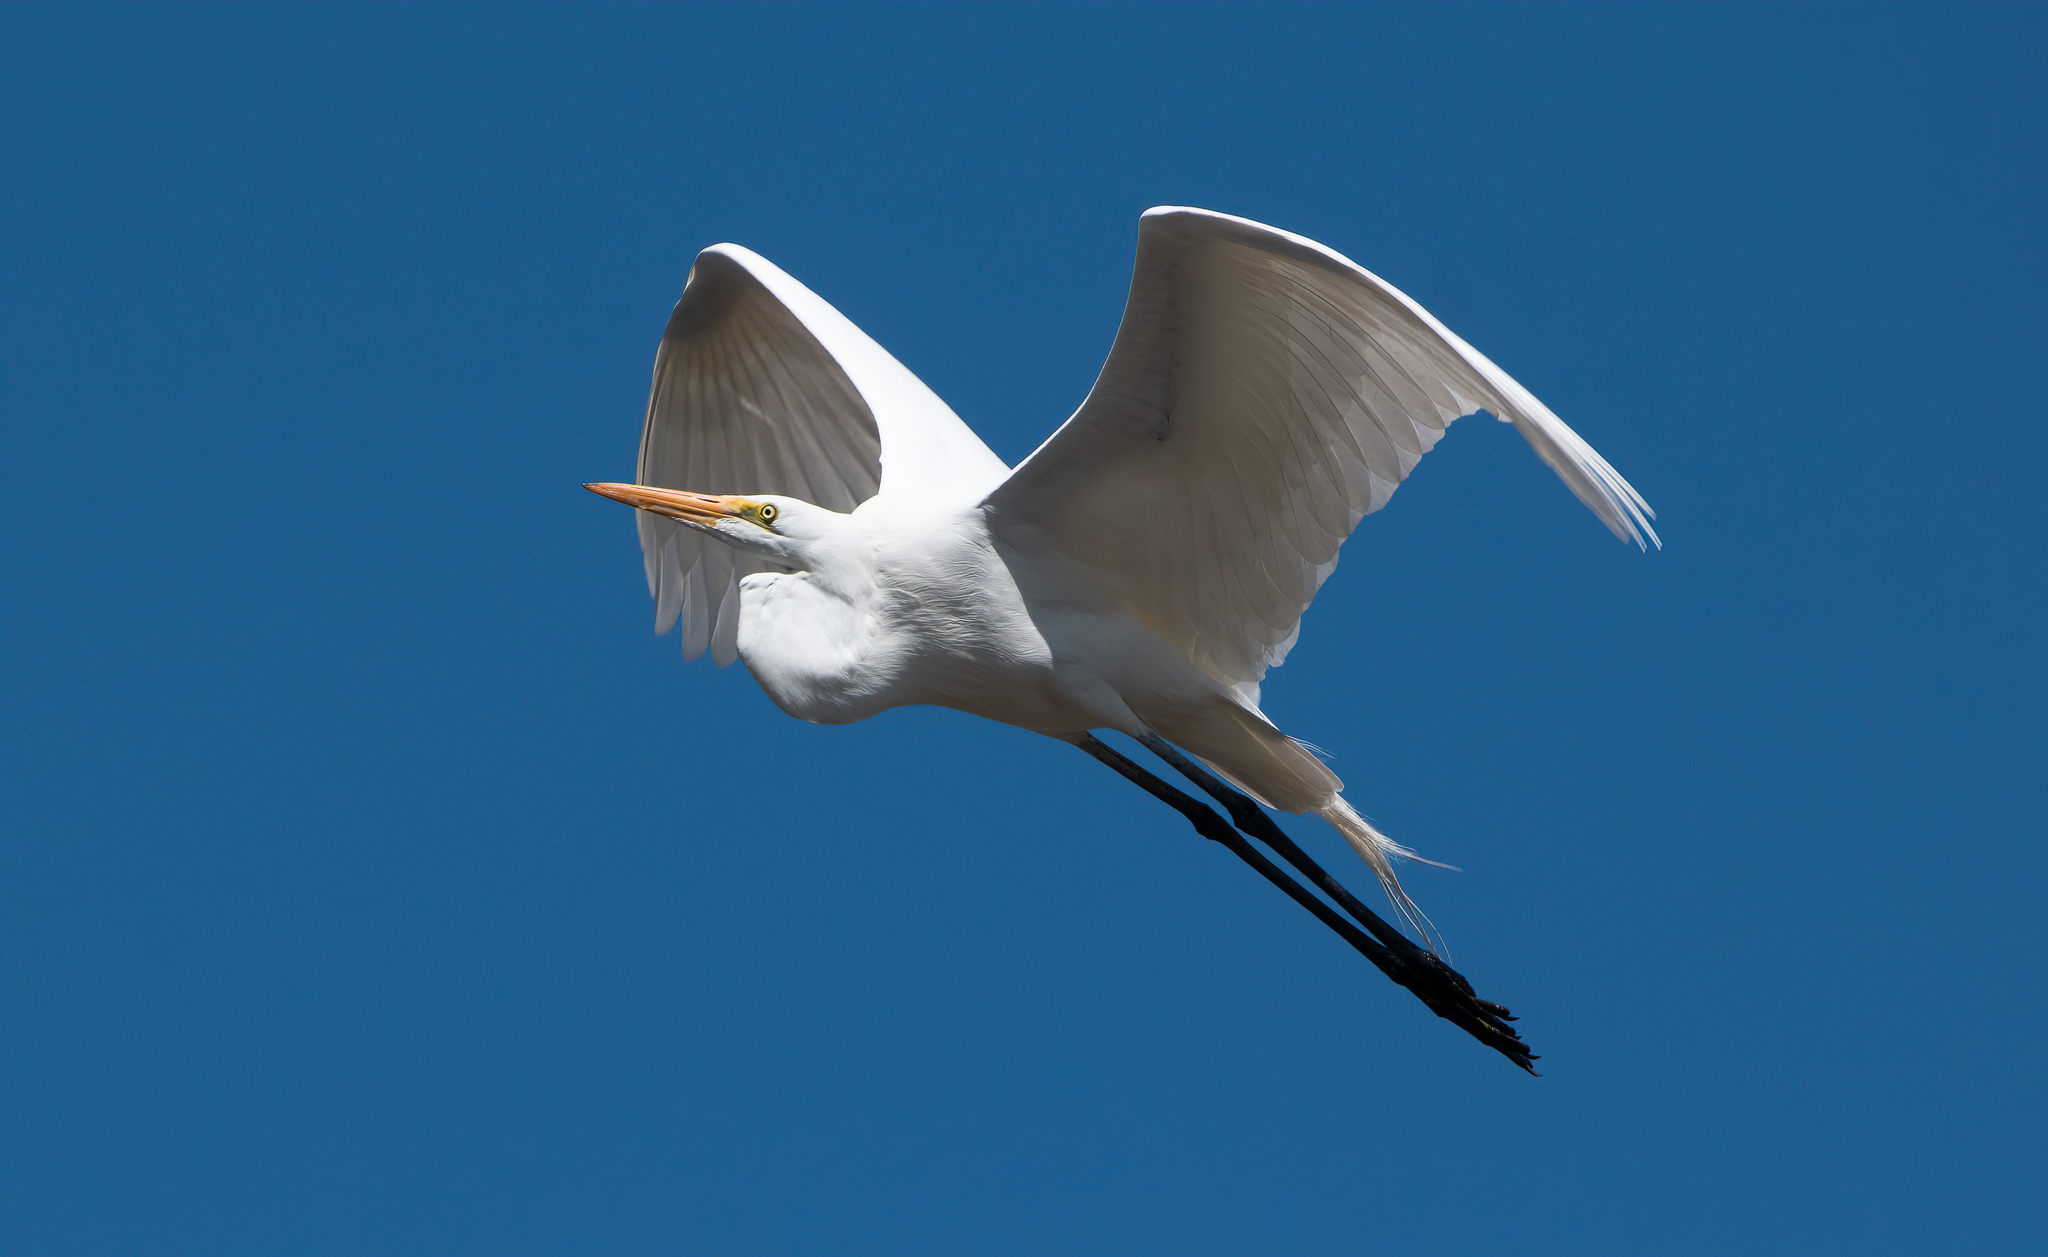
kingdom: Animalia
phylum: Chordata
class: Aves
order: Pelecaniformes
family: Ardeidae
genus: Ardea
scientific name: Ardea alba
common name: Great egret
